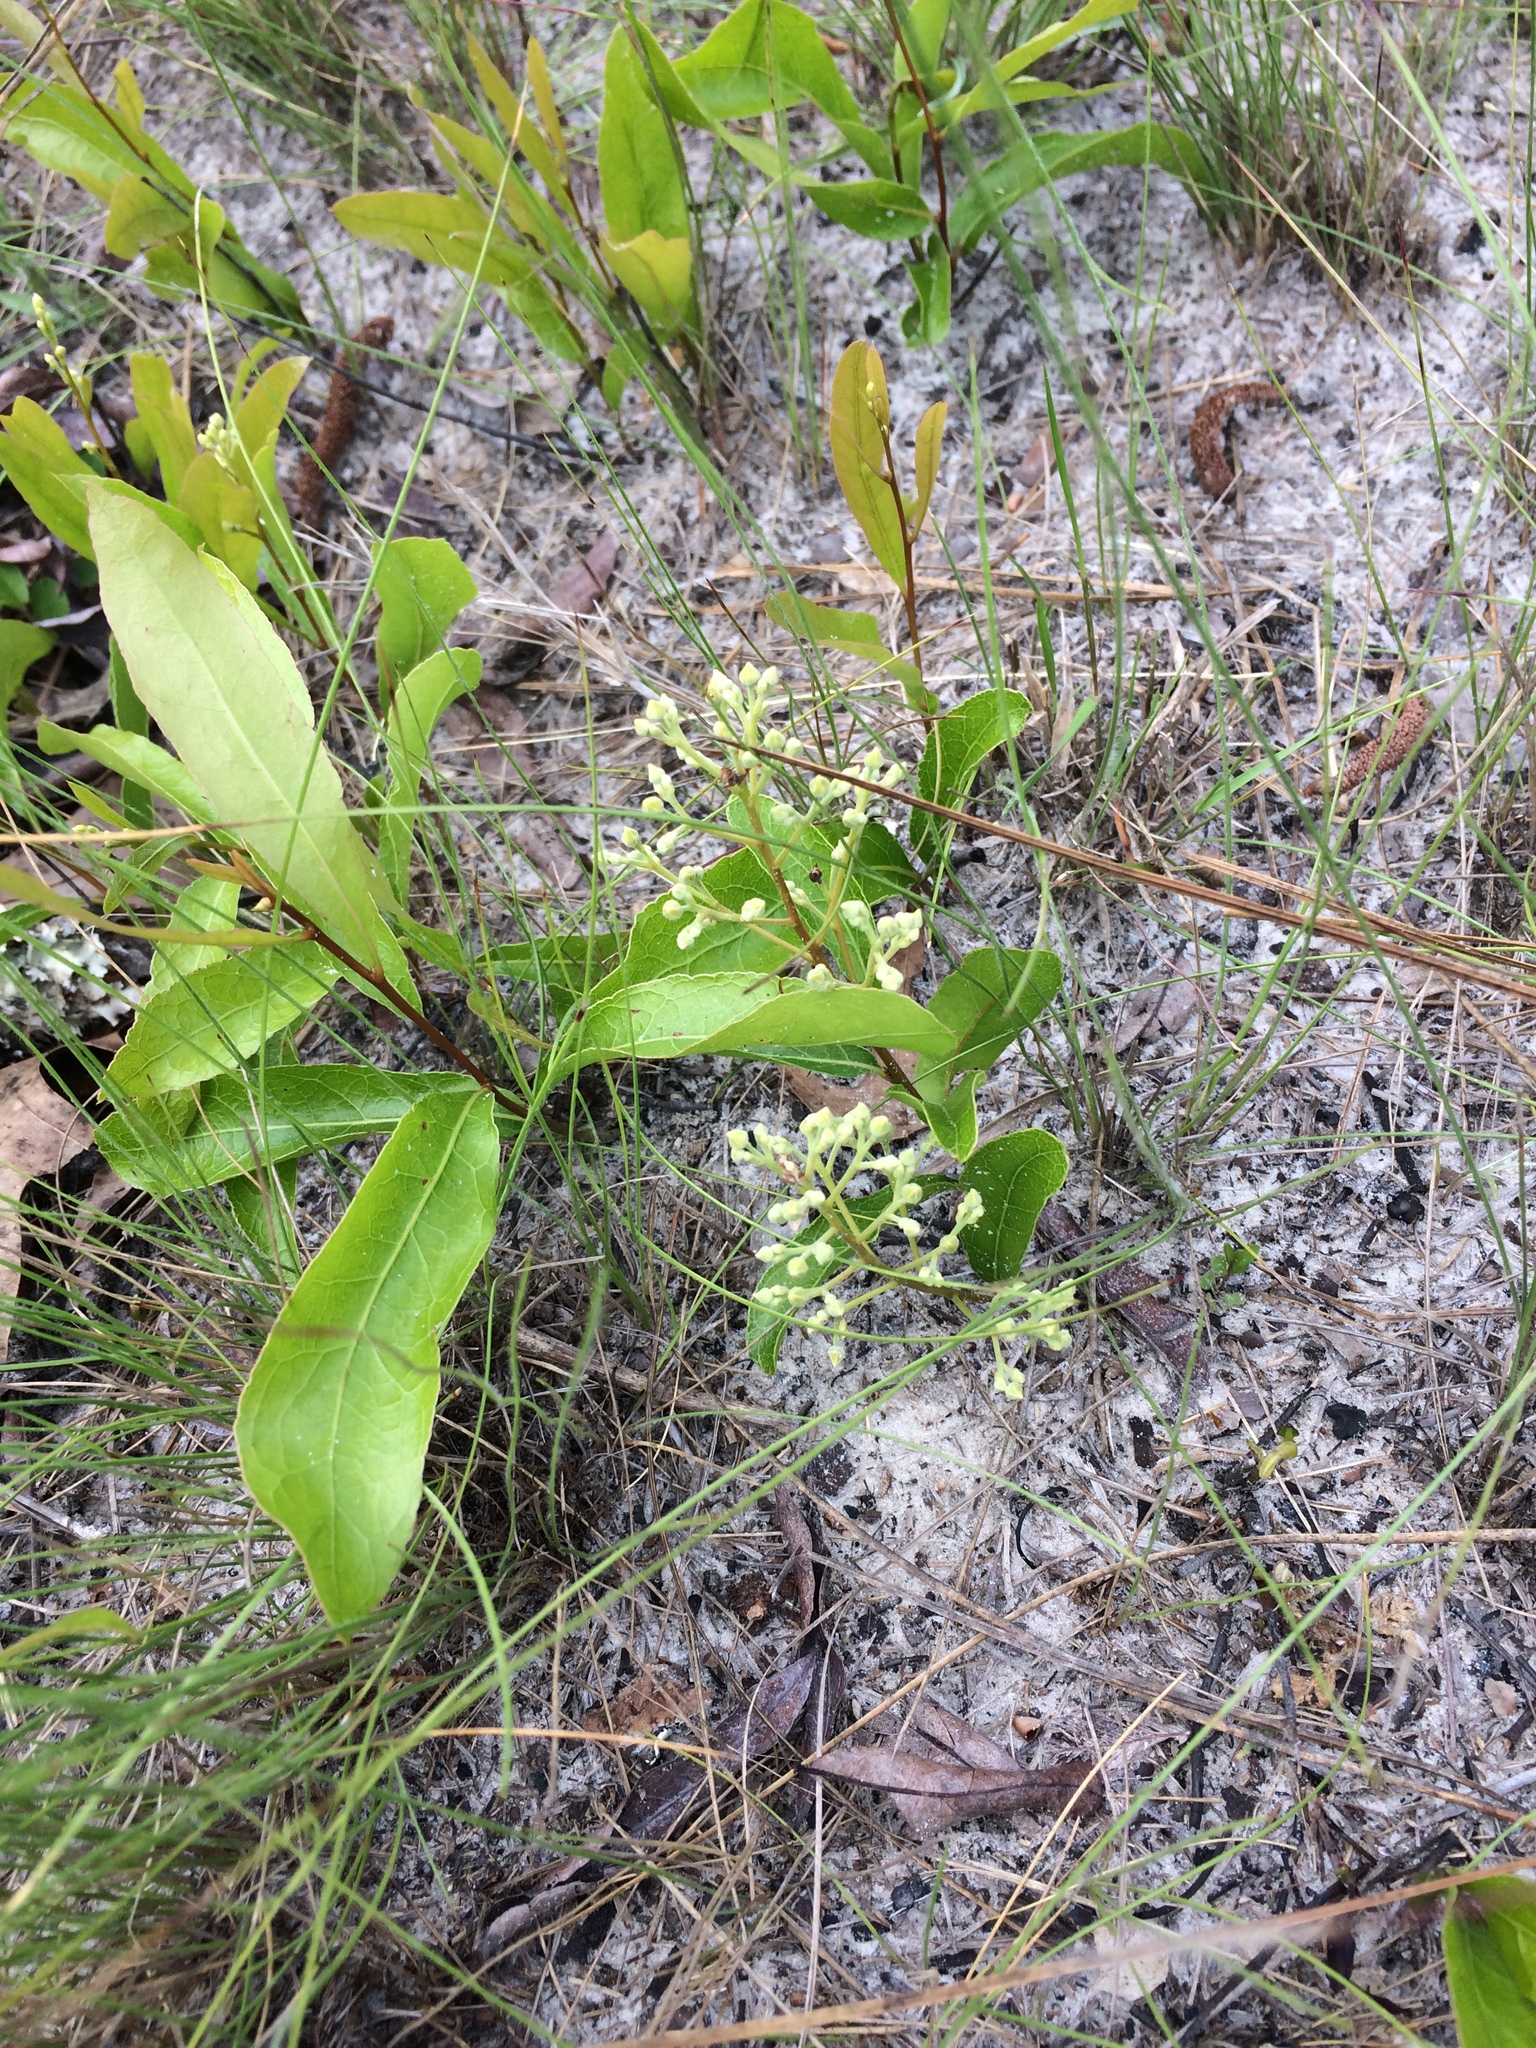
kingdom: Plantae
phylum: Tracheophyta
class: Magnoliopsida
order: Malpighiales
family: Chrysobalanaceae
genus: Geobalanus
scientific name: Geobalanus oblongifolius
